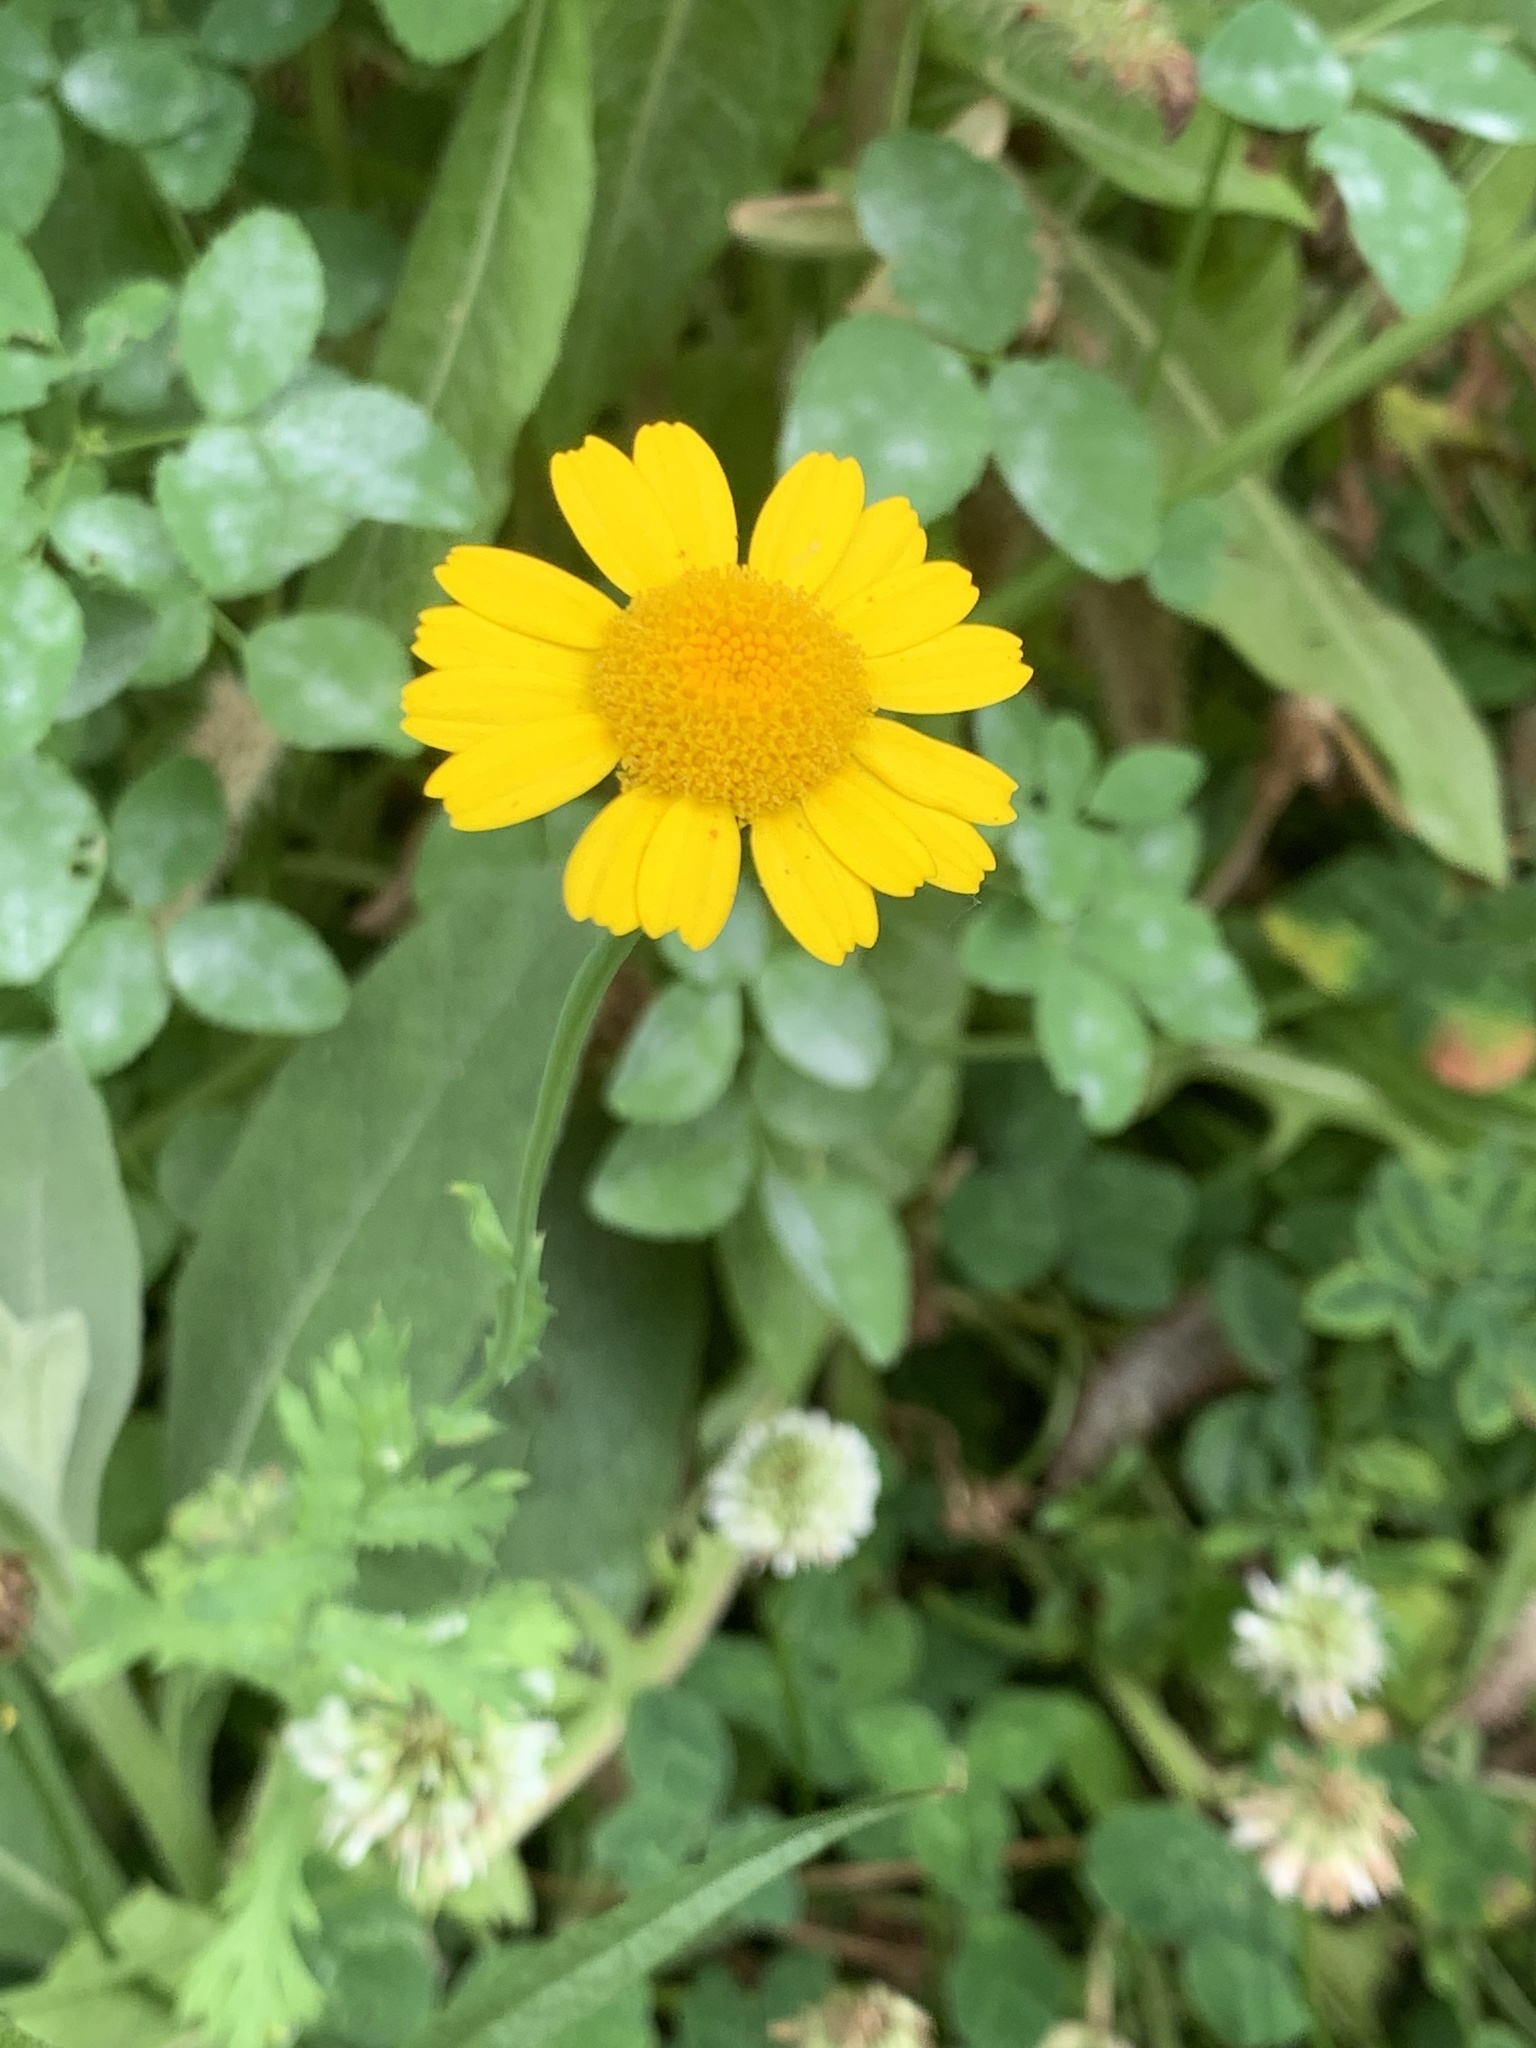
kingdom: Plantae
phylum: Tracheophyta
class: Magnoliopsida
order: Asterales
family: Asteraceae
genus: Cota
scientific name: Cota tinctoria
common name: Golden chamomile
